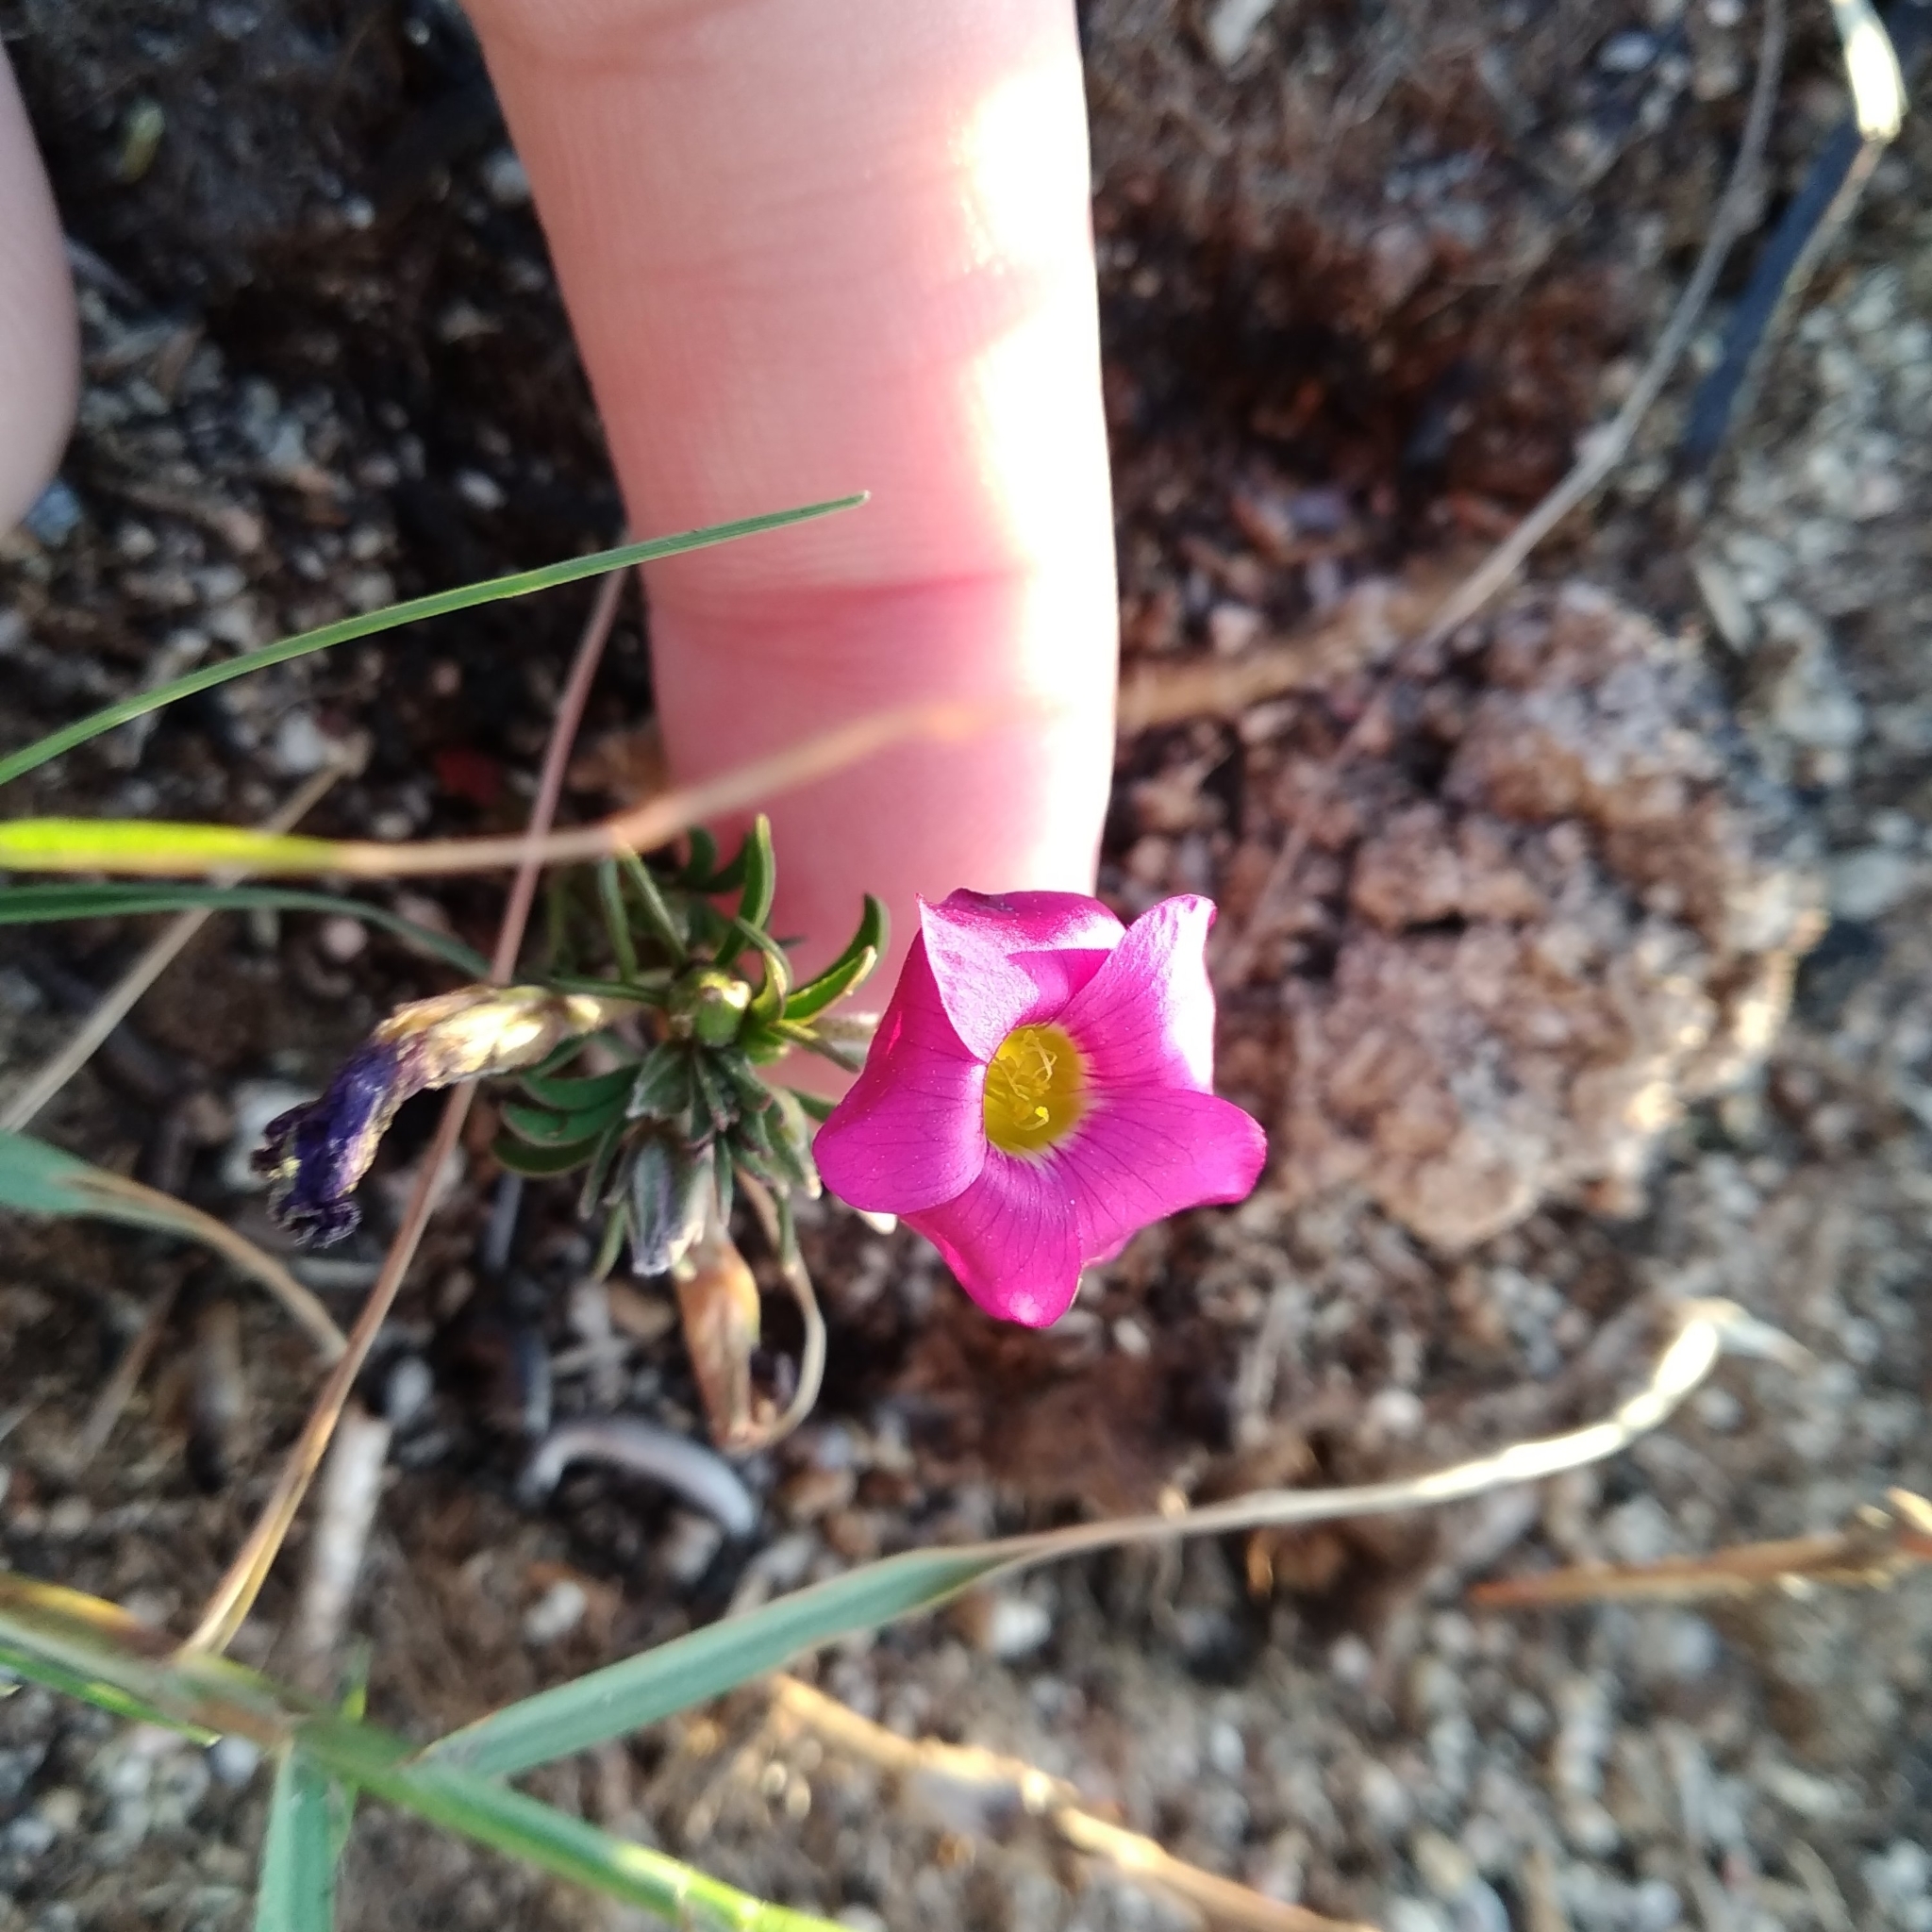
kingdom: Plantae
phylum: Tracheophyta
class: Magnoliopsida
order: Oxalidales
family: Oxalidaceae
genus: Oxalis
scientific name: Oxalis hirta
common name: Tropical woodsorrel
